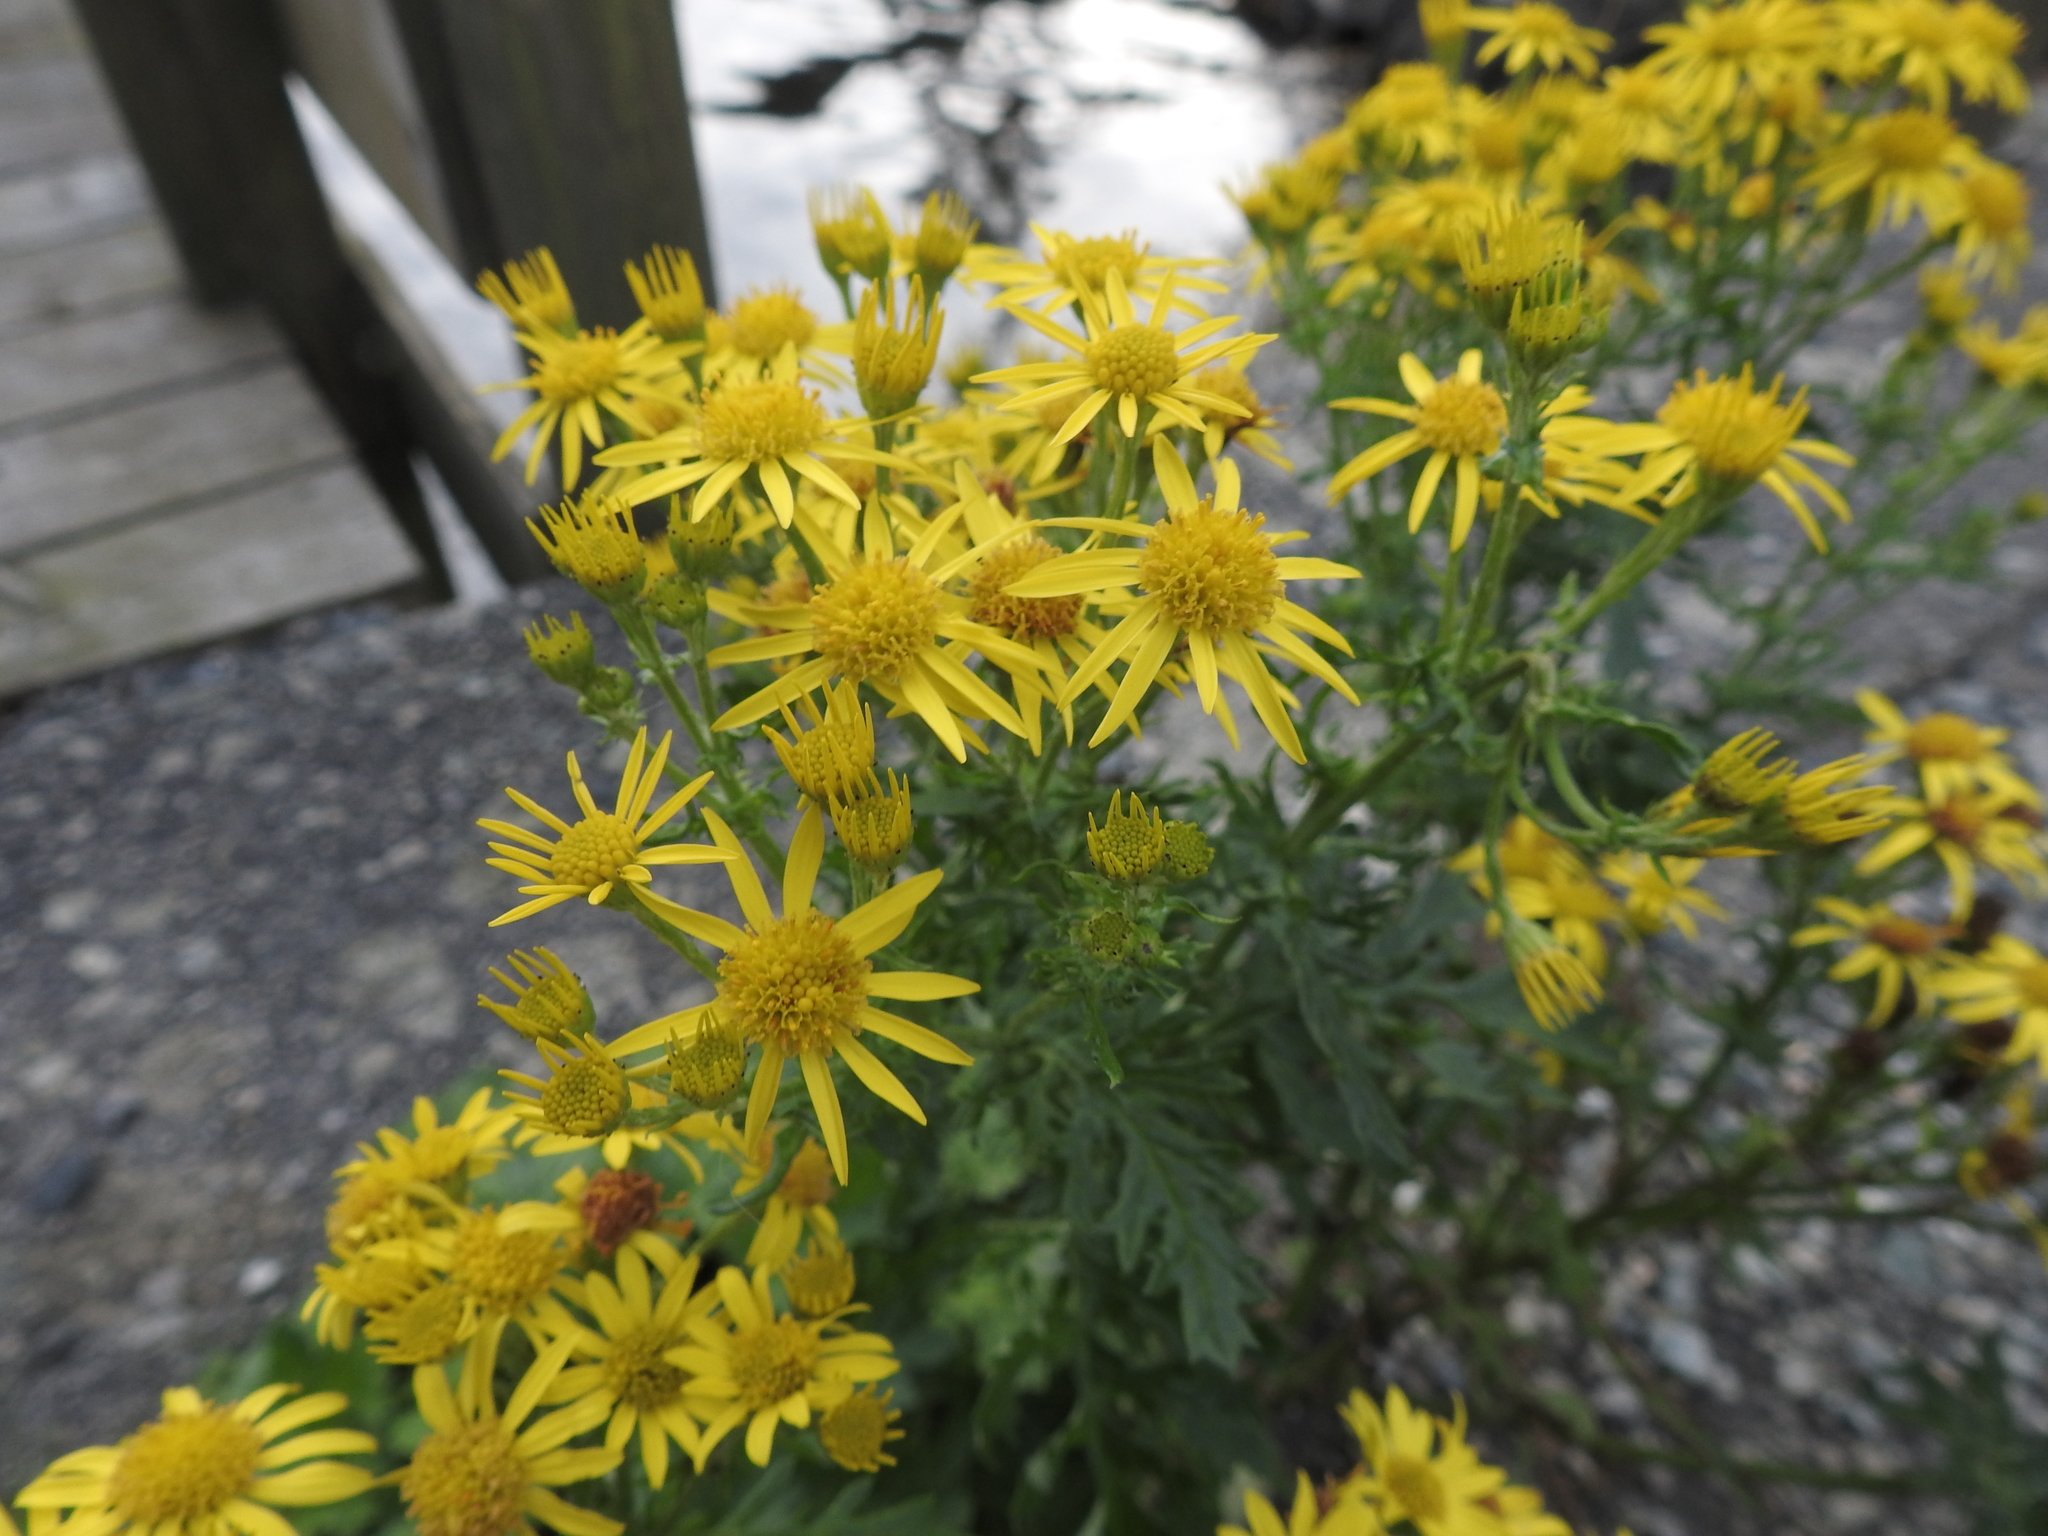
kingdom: Plantae
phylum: Tracheophyta
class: Magnoliopsida
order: Asterales
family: Asteraceae
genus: Jacobaea
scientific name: Jacobaea vulgaris
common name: Stinking willie
